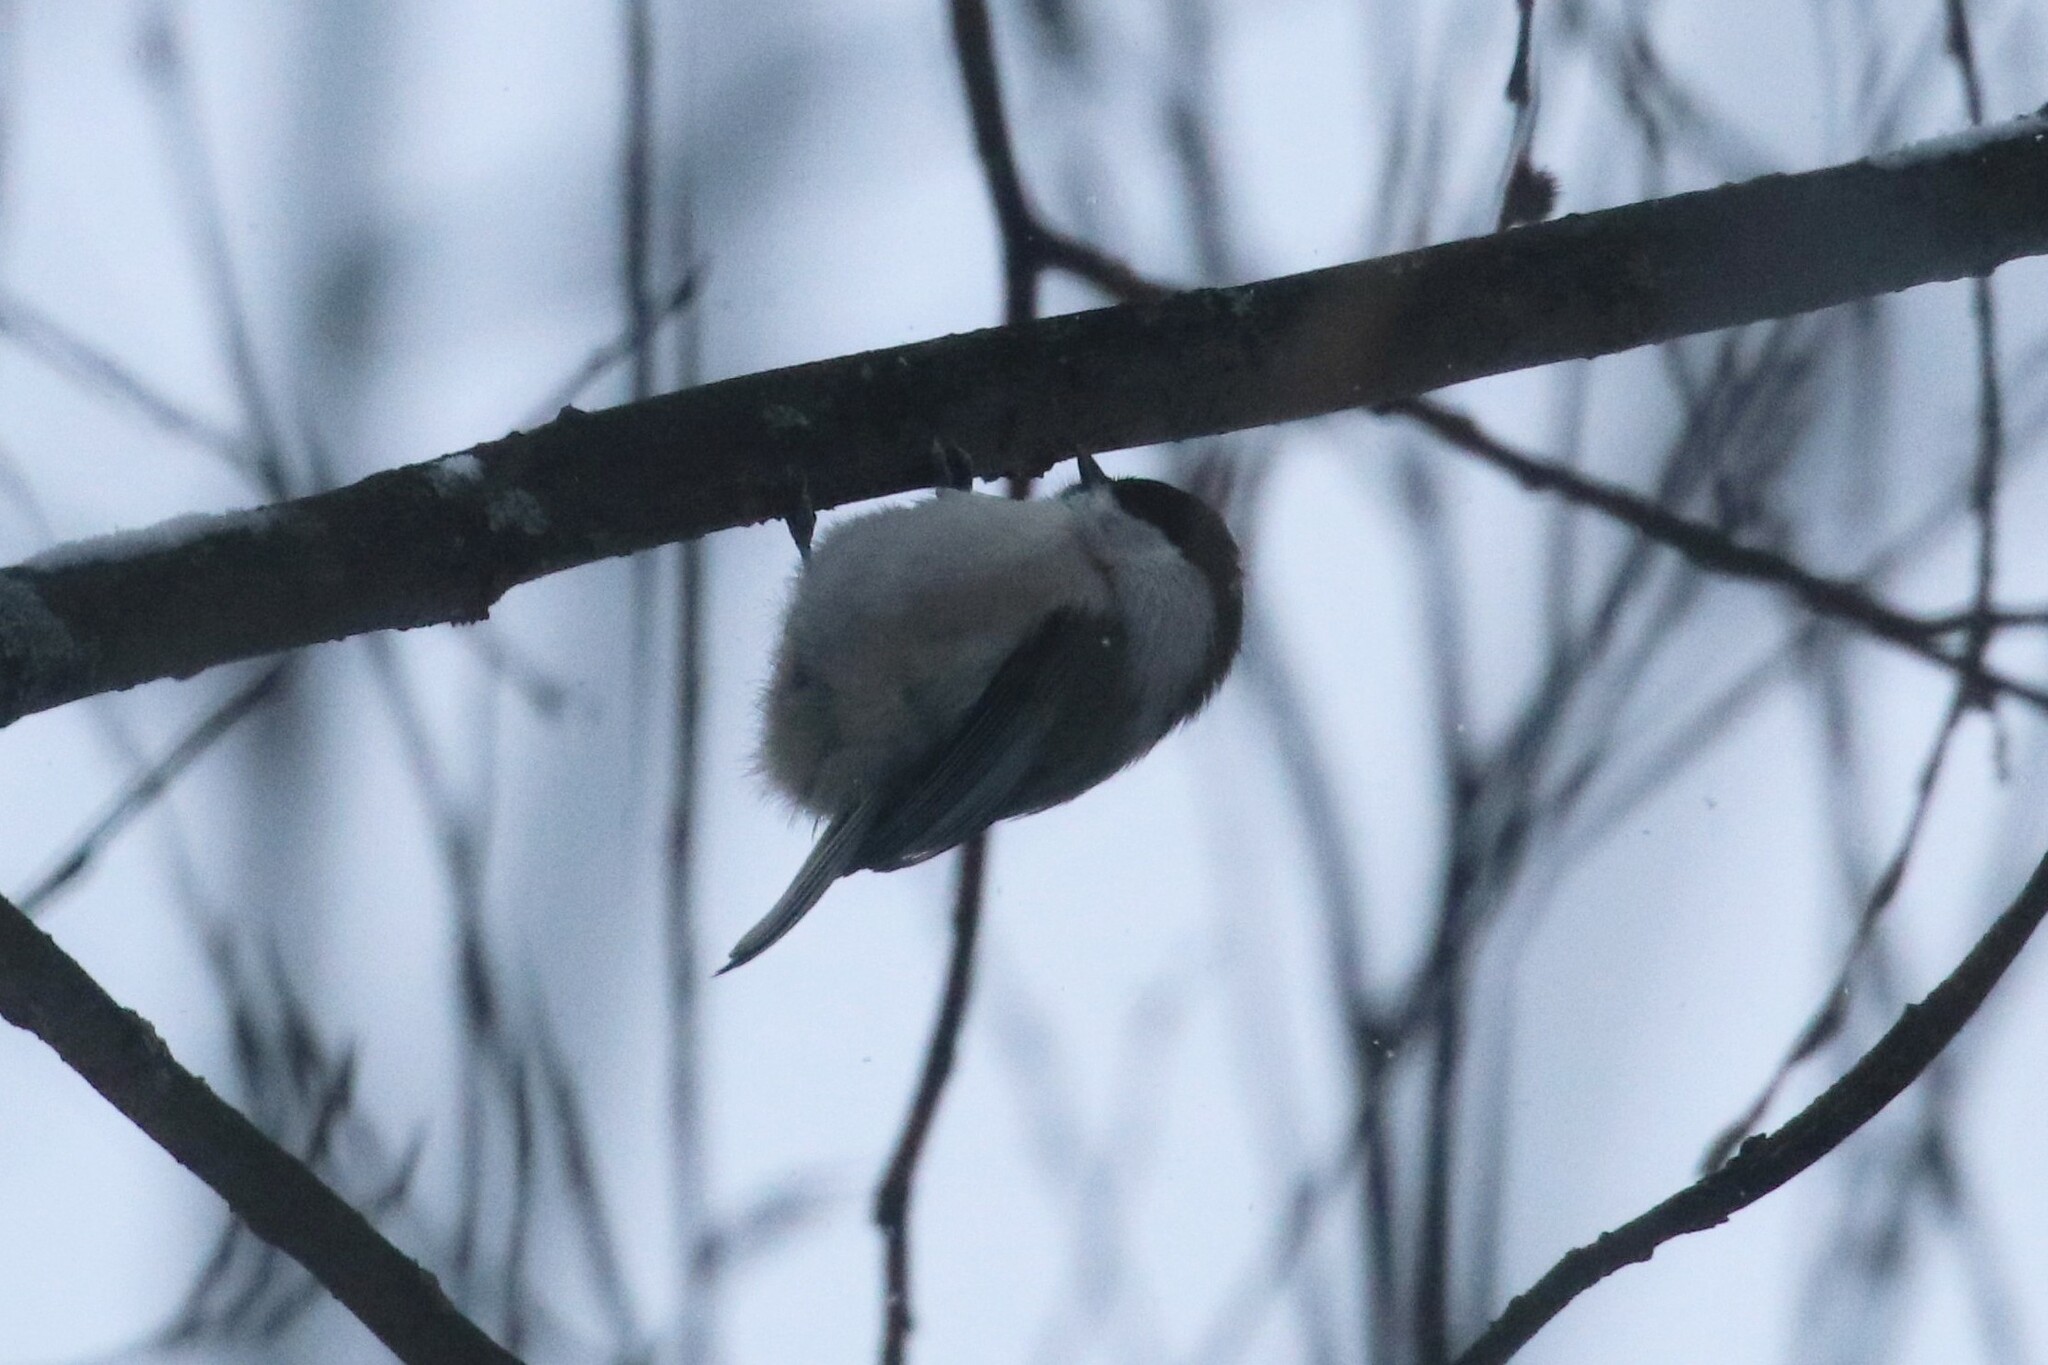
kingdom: Animalia
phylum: Chordata
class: Aves
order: Passeriformes
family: Paridae
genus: Poecile
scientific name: Poecile montanus
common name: Willow tit
